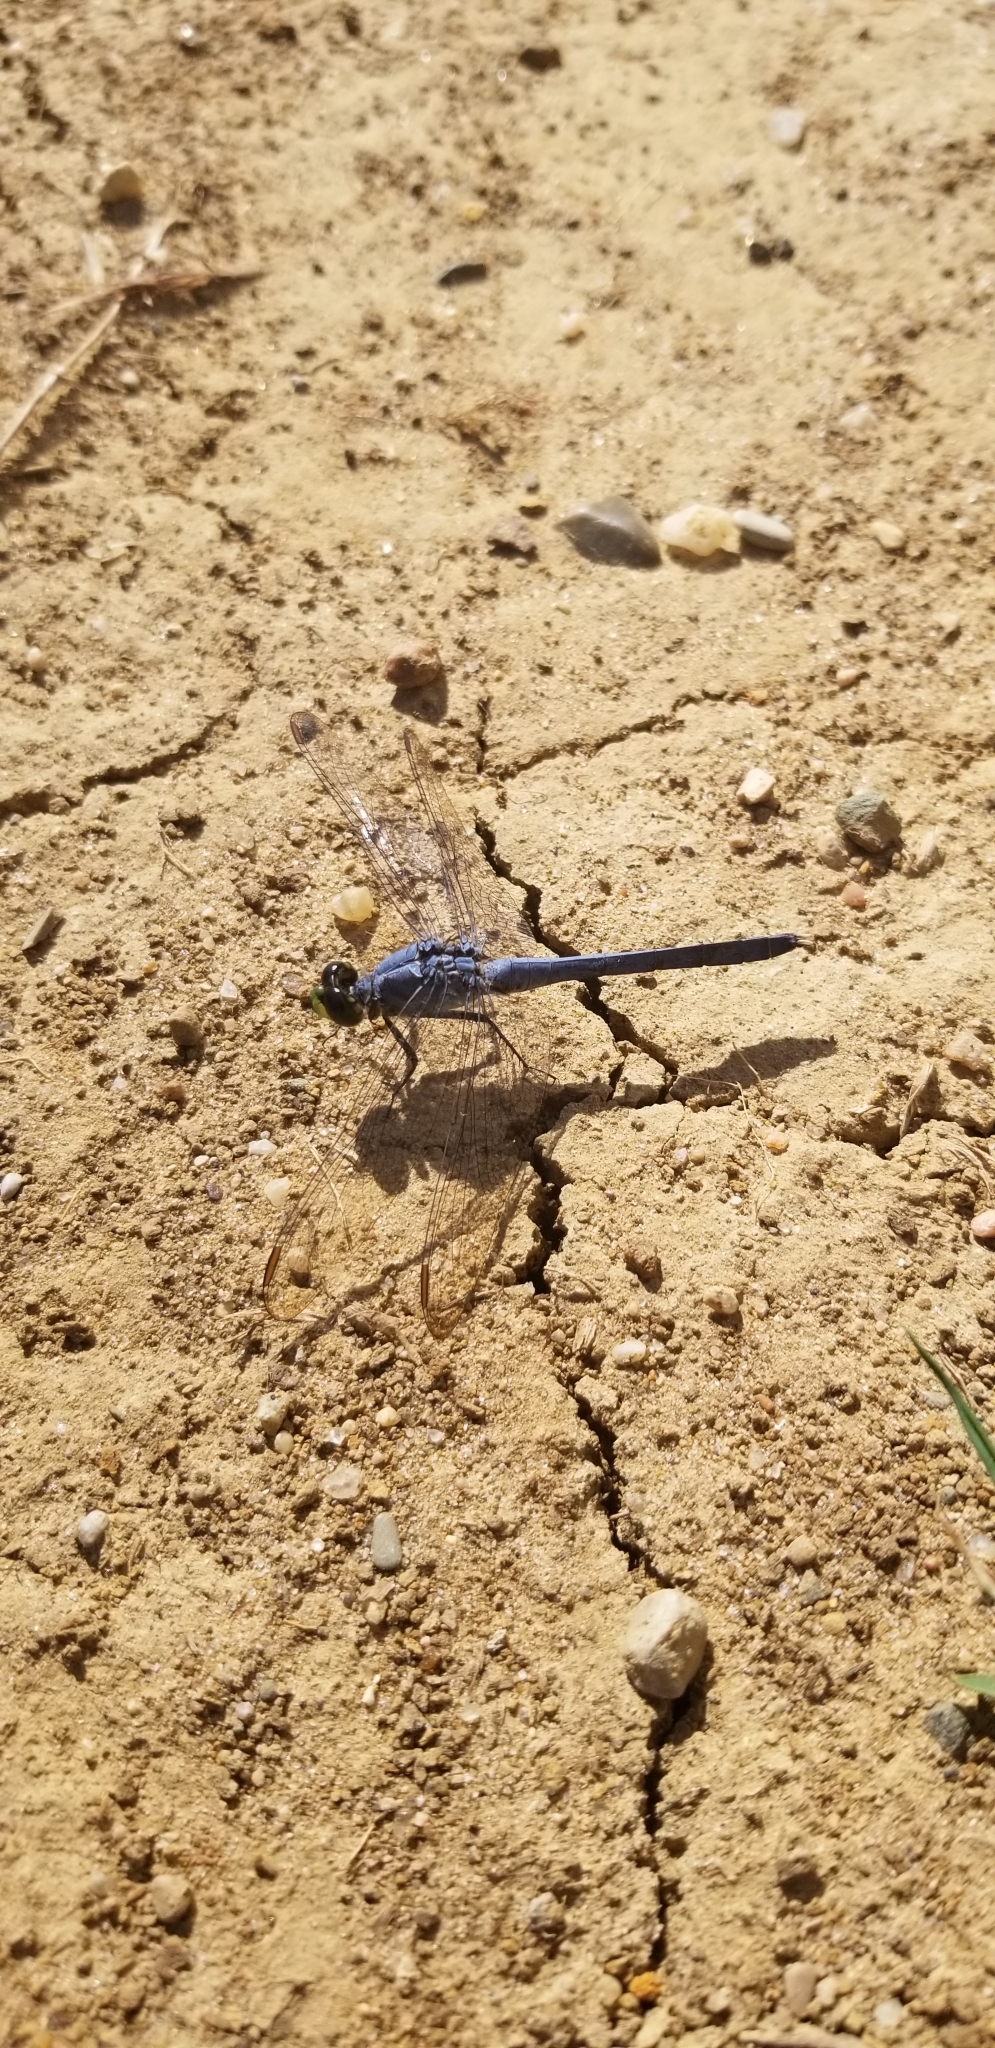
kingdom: Animalia
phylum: Arthropoda
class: Insecta
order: Odonata
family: Libellulidae
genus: Erythemis
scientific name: Erythemis simplicicollis
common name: Eastern pondhawk
